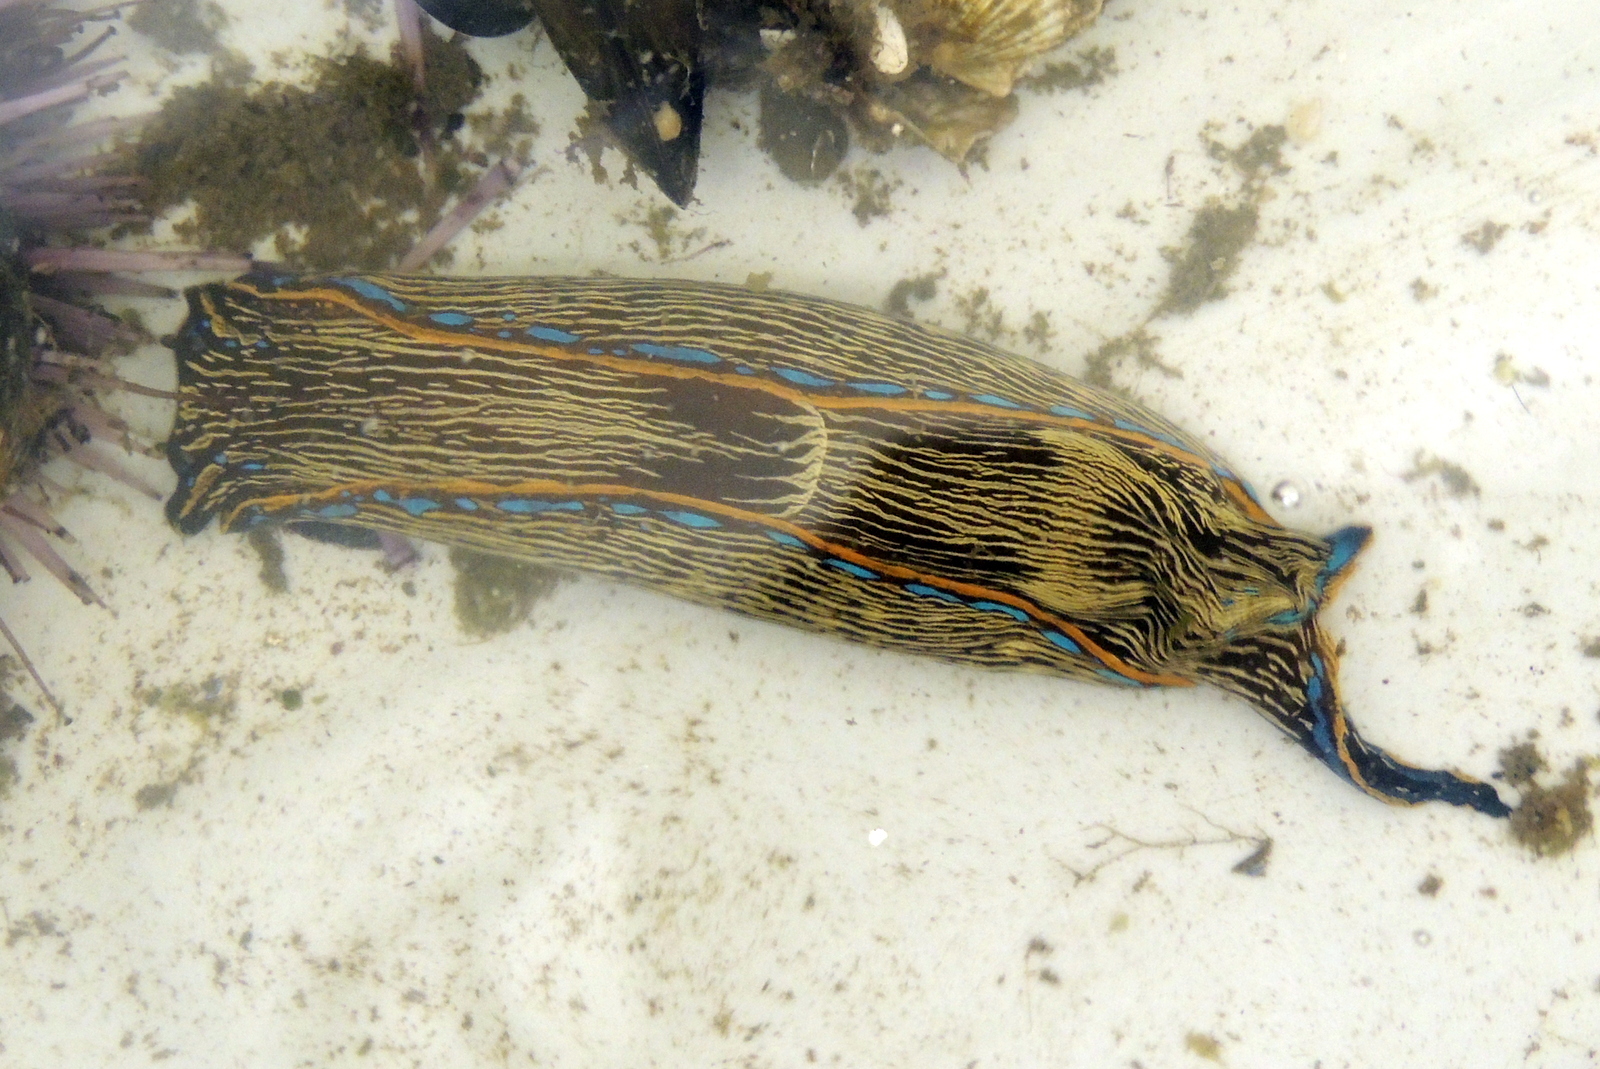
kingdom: Animalia
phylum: Mollusca
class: Gastropoda
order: Cephalaspidea
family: Aglajidae
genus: Navanax
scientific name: Navanax inermis
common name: California aglaja
